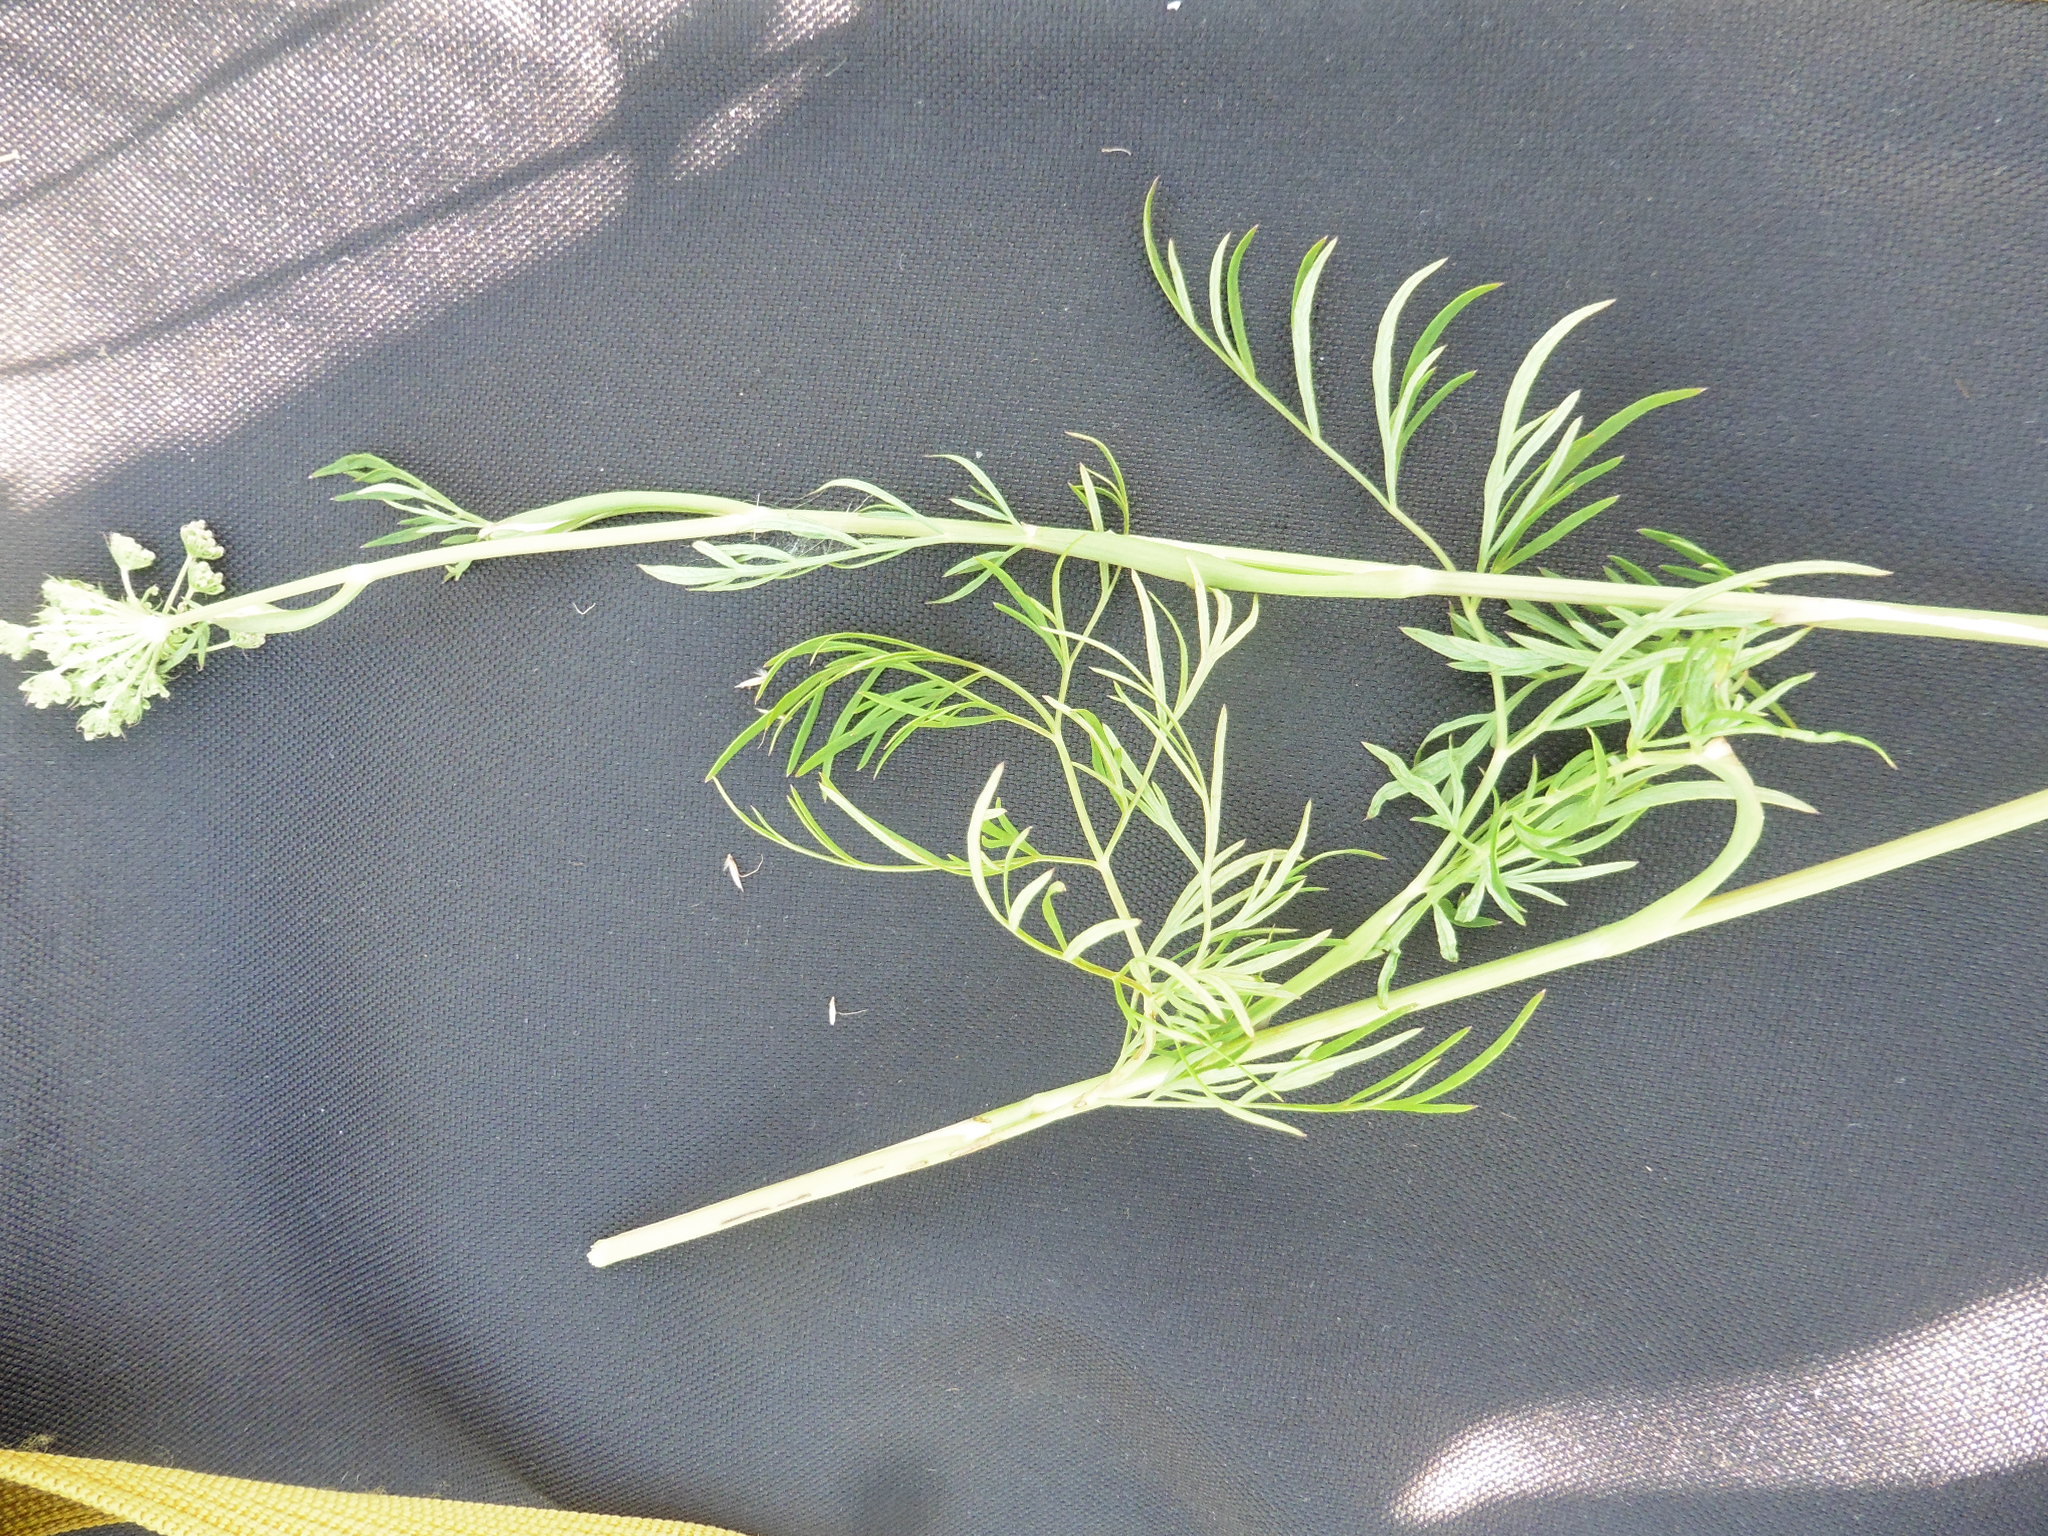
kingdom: Plantae
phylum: Tracheophyta
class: Magnoliopsida
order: Apiales
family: Apiaceae
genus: Kadenia
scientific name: Kadenia dubia
